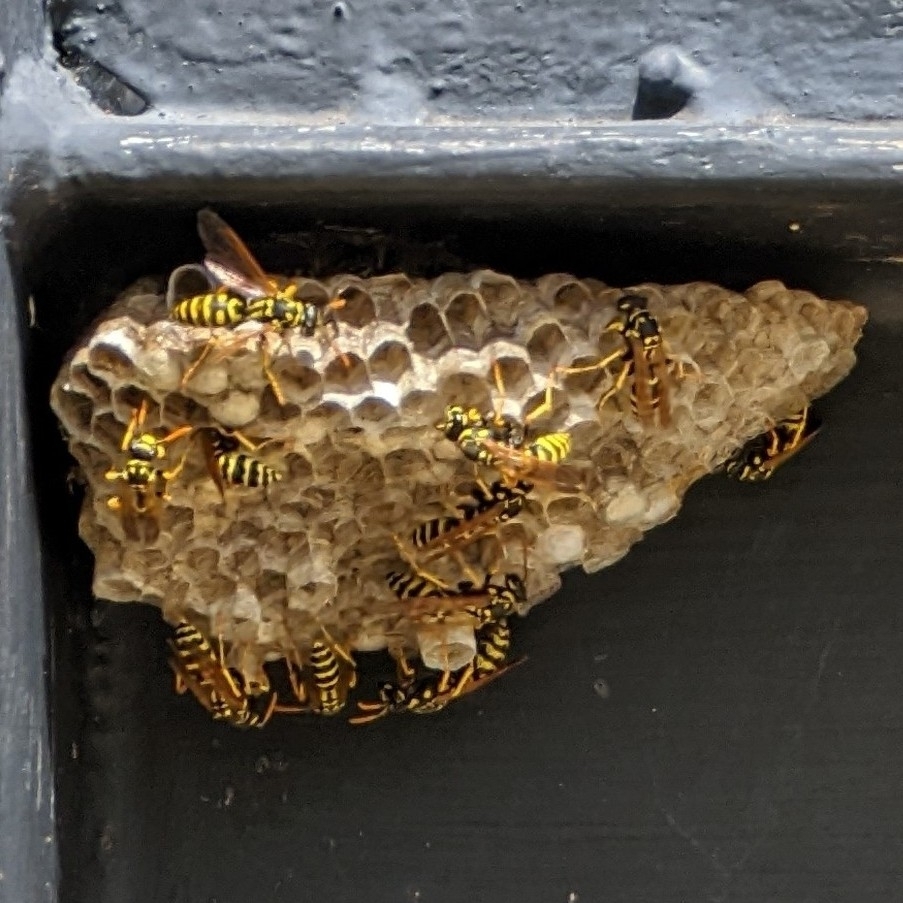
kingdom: Animalia
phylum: Arthropoda
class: Insecta
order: Hymenoptera
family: Eumenidae
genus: Polistes
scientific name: Polistes dominula
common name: Paper wasp
